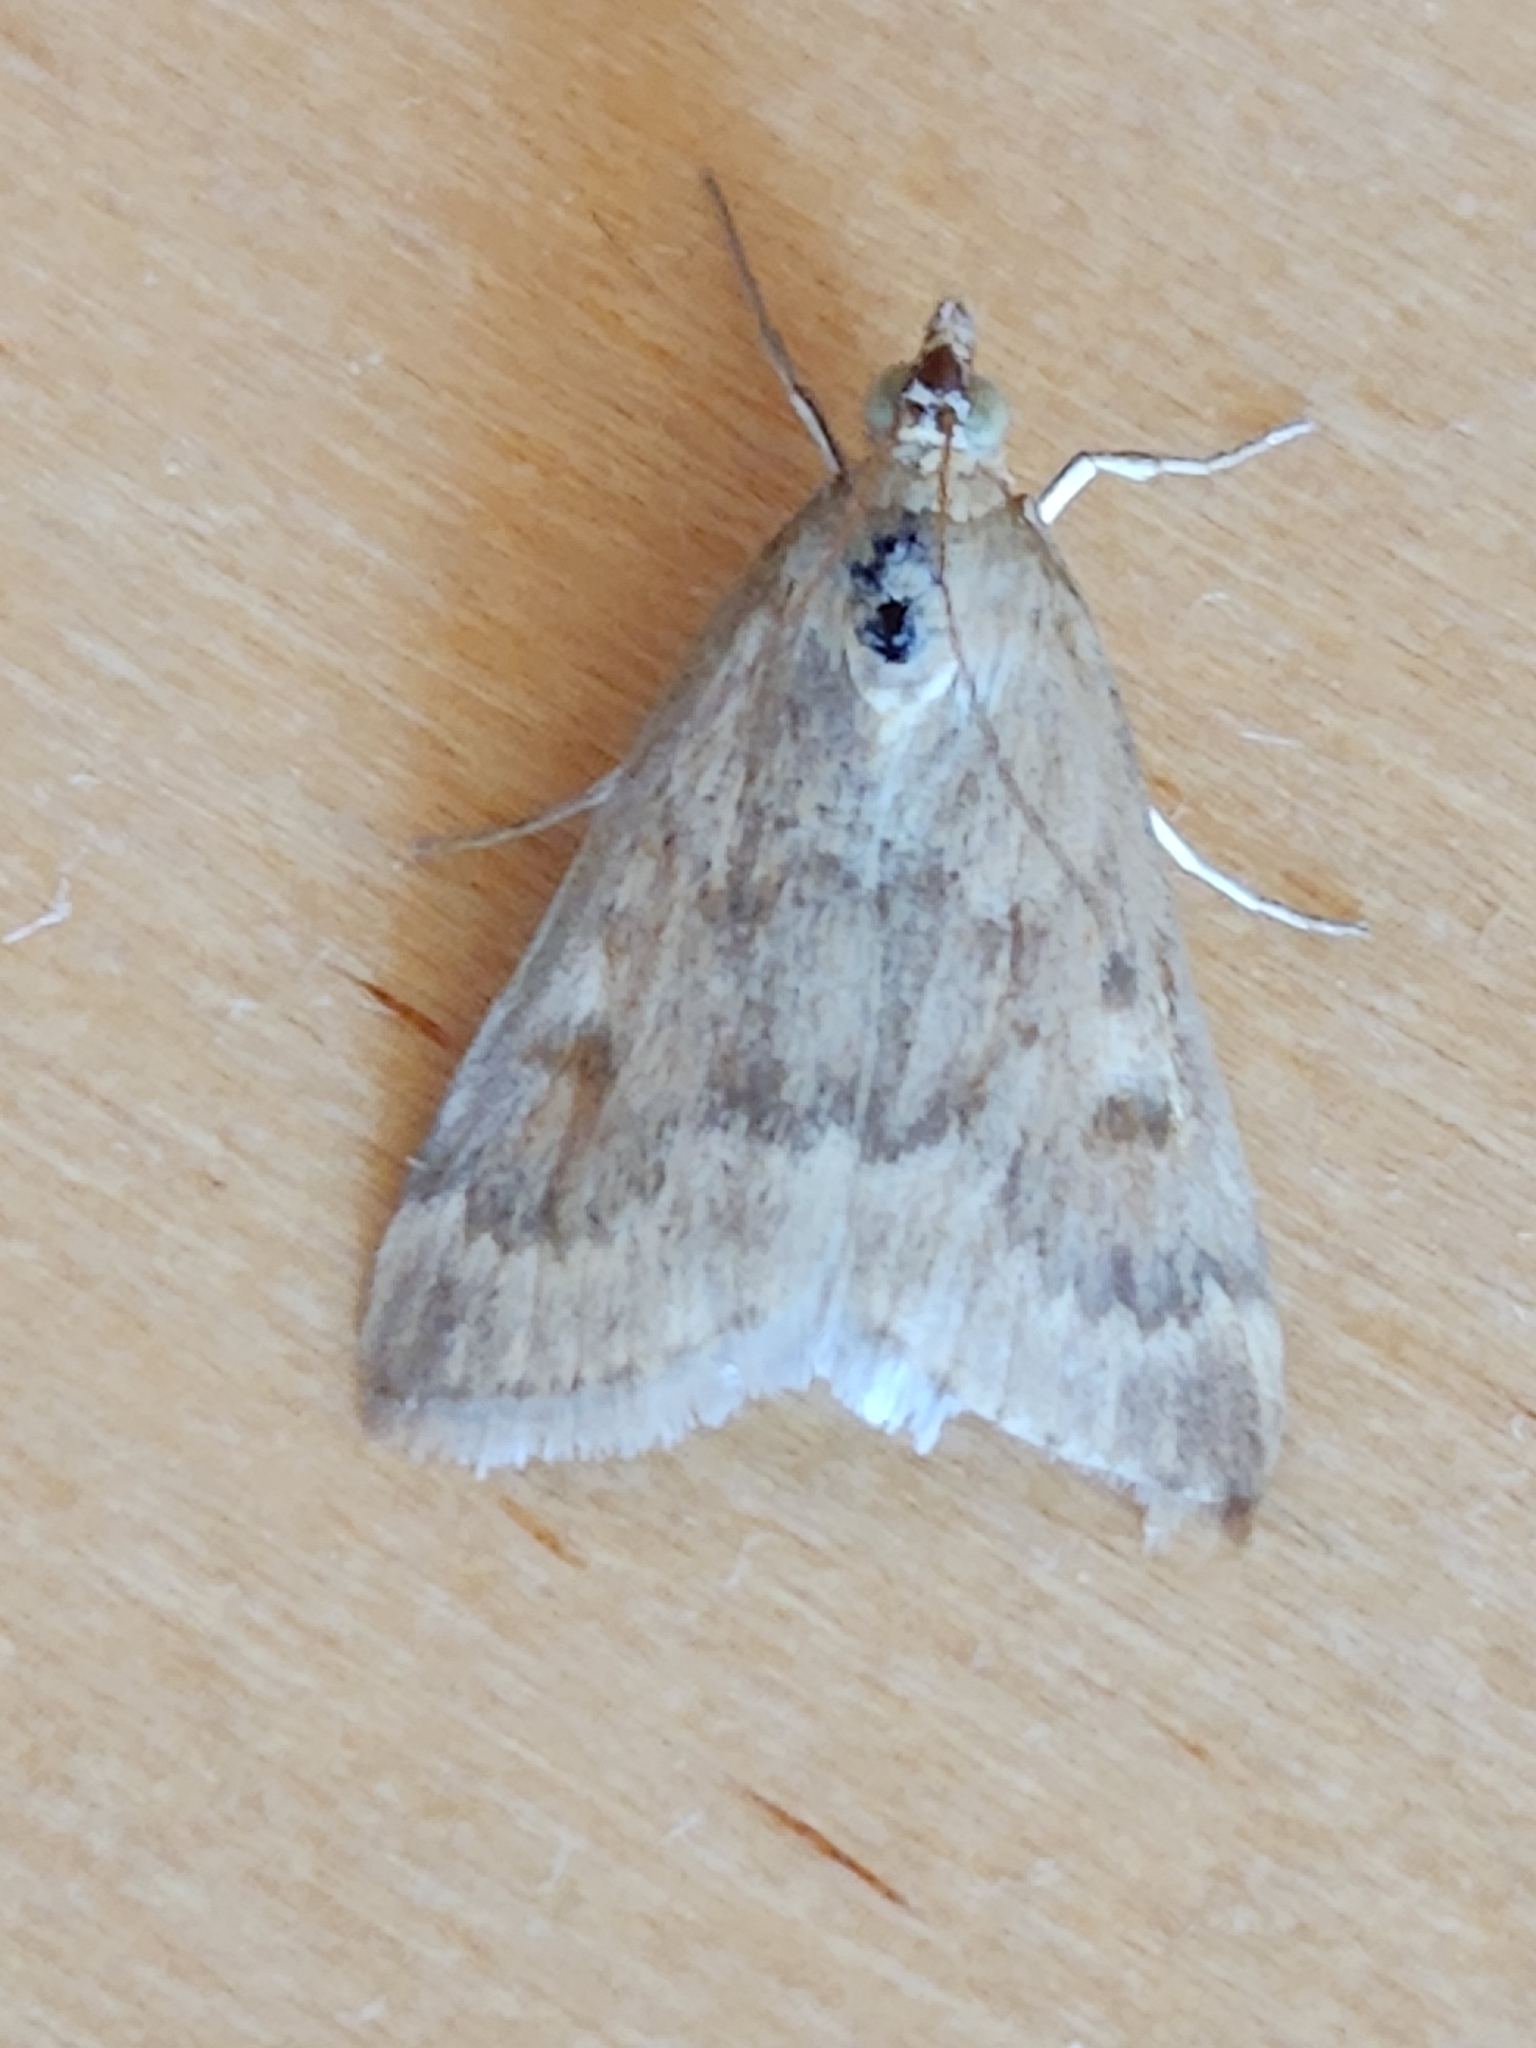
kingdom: Animalia
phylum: Arthropoda
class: Insecta
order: Lepidoptera
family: Crambidae
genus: Achyra
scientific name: Achyra rantalis
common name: Garden webworm
